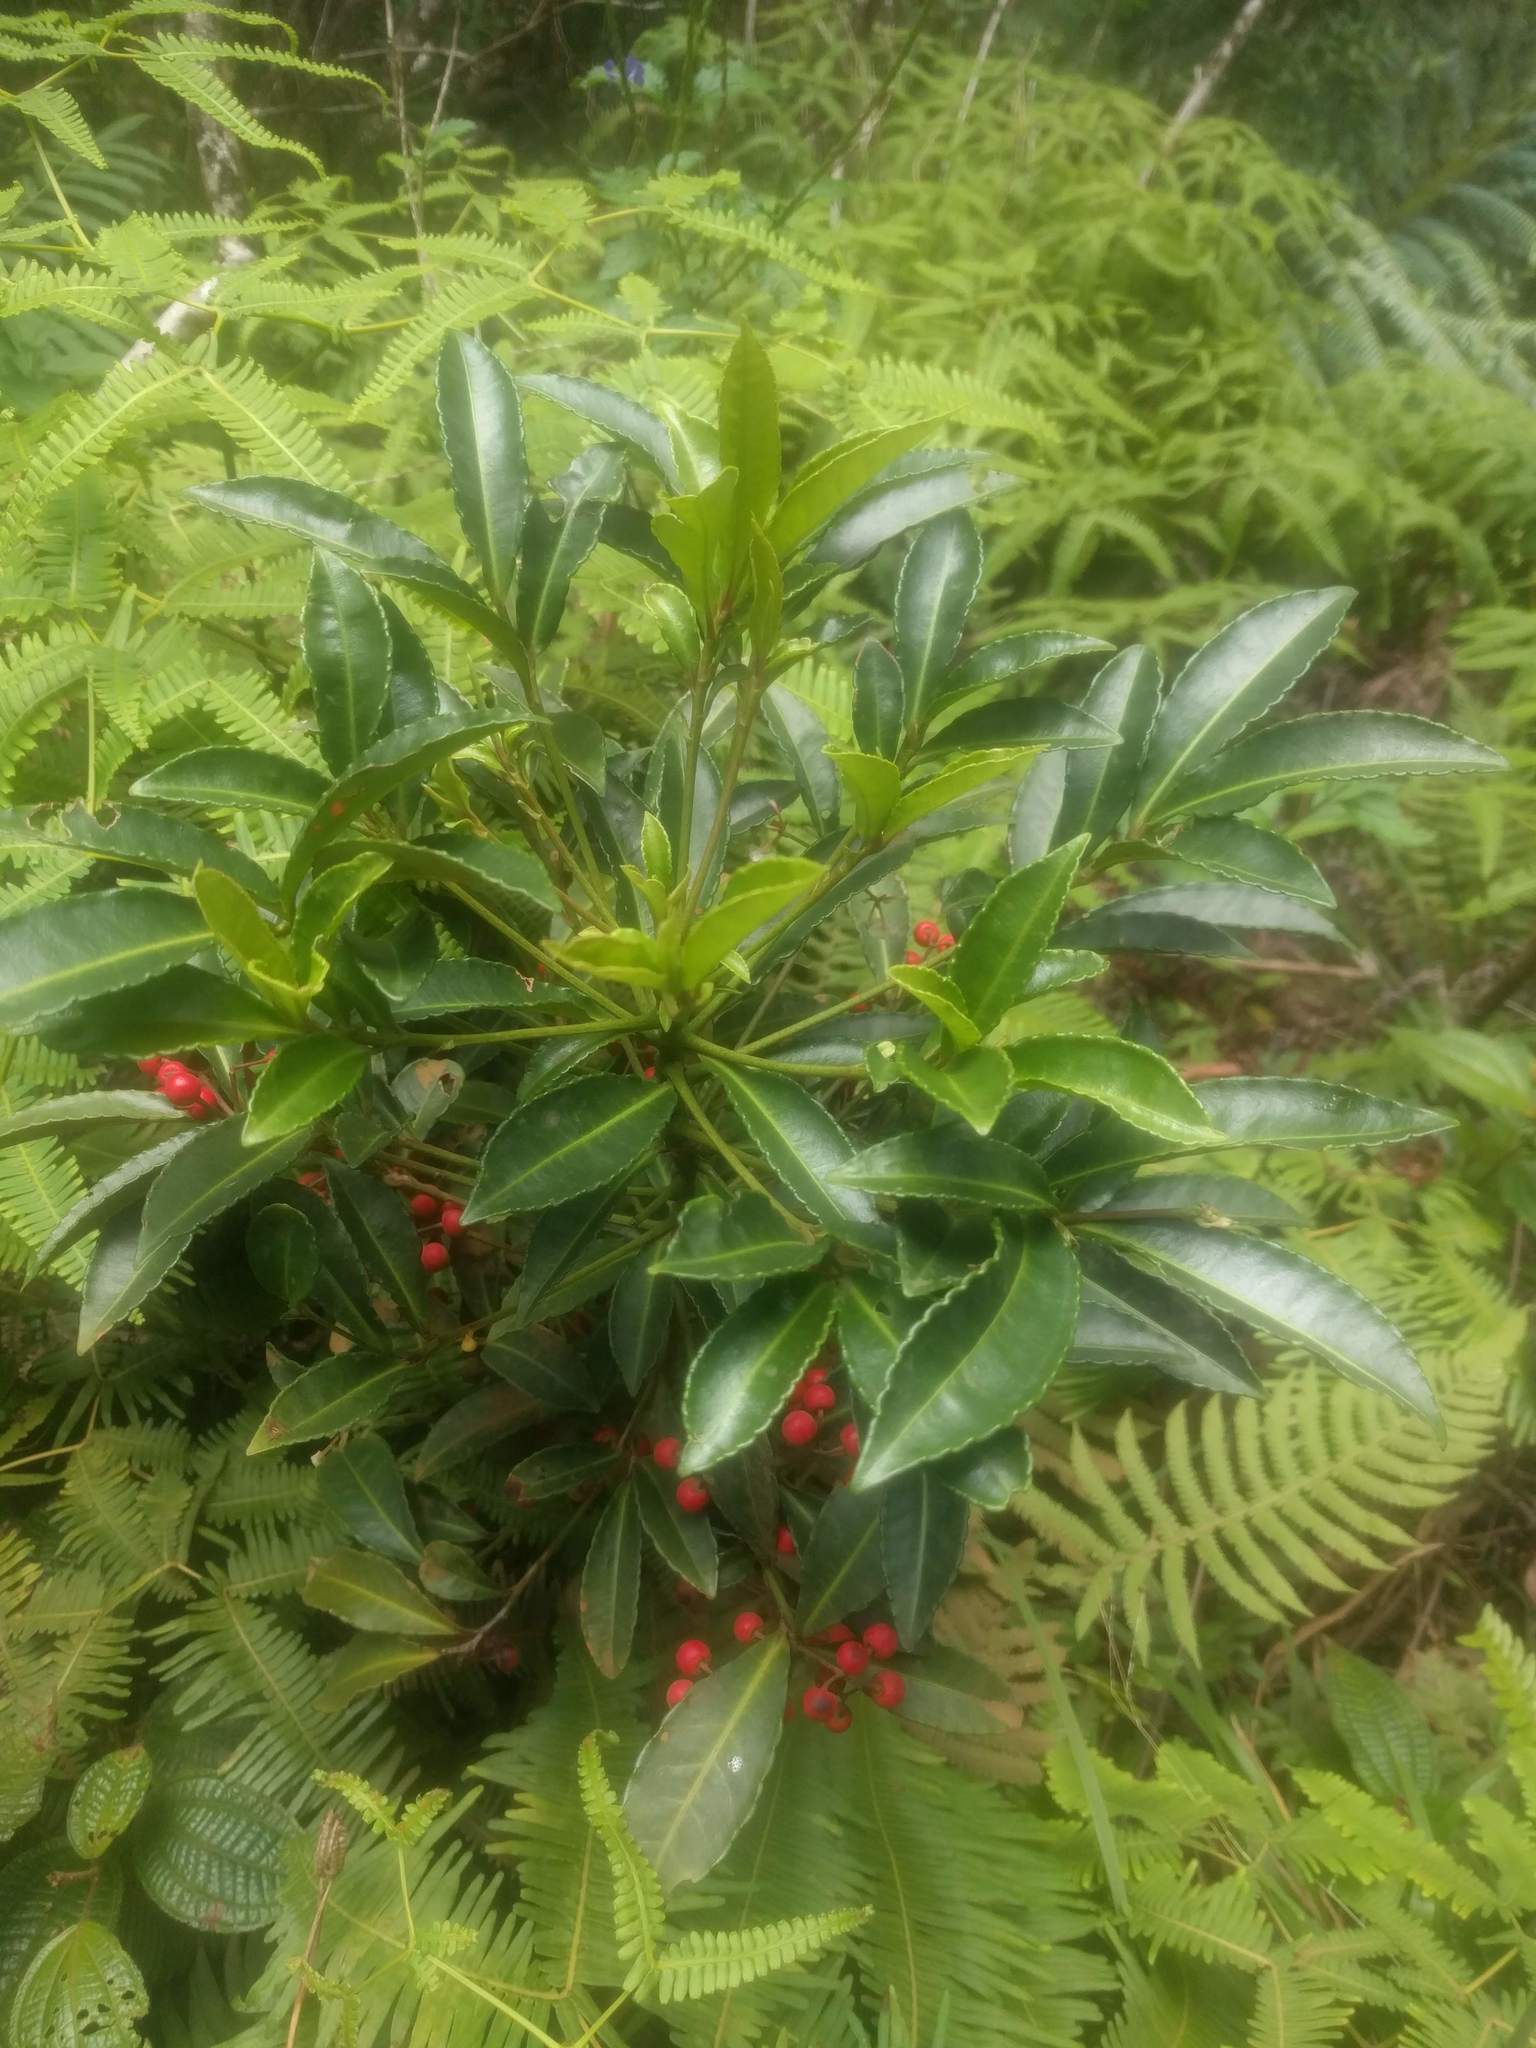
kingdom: Plantae
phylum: Tracheophyta
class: Magnoliopsida
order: Ericales
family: Primulaceae
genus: Ardisia
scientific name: Ardisia crenata
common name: Hen's eyes
